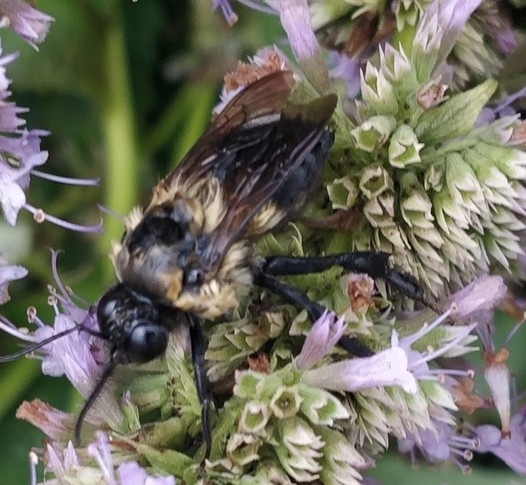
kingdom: Animalia
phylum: Arthropoda
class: Insecta
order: Hymenoptera
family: Apidae
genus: Bombus
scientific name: Bombus griseocollis
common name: Brown-belted bumble bee
